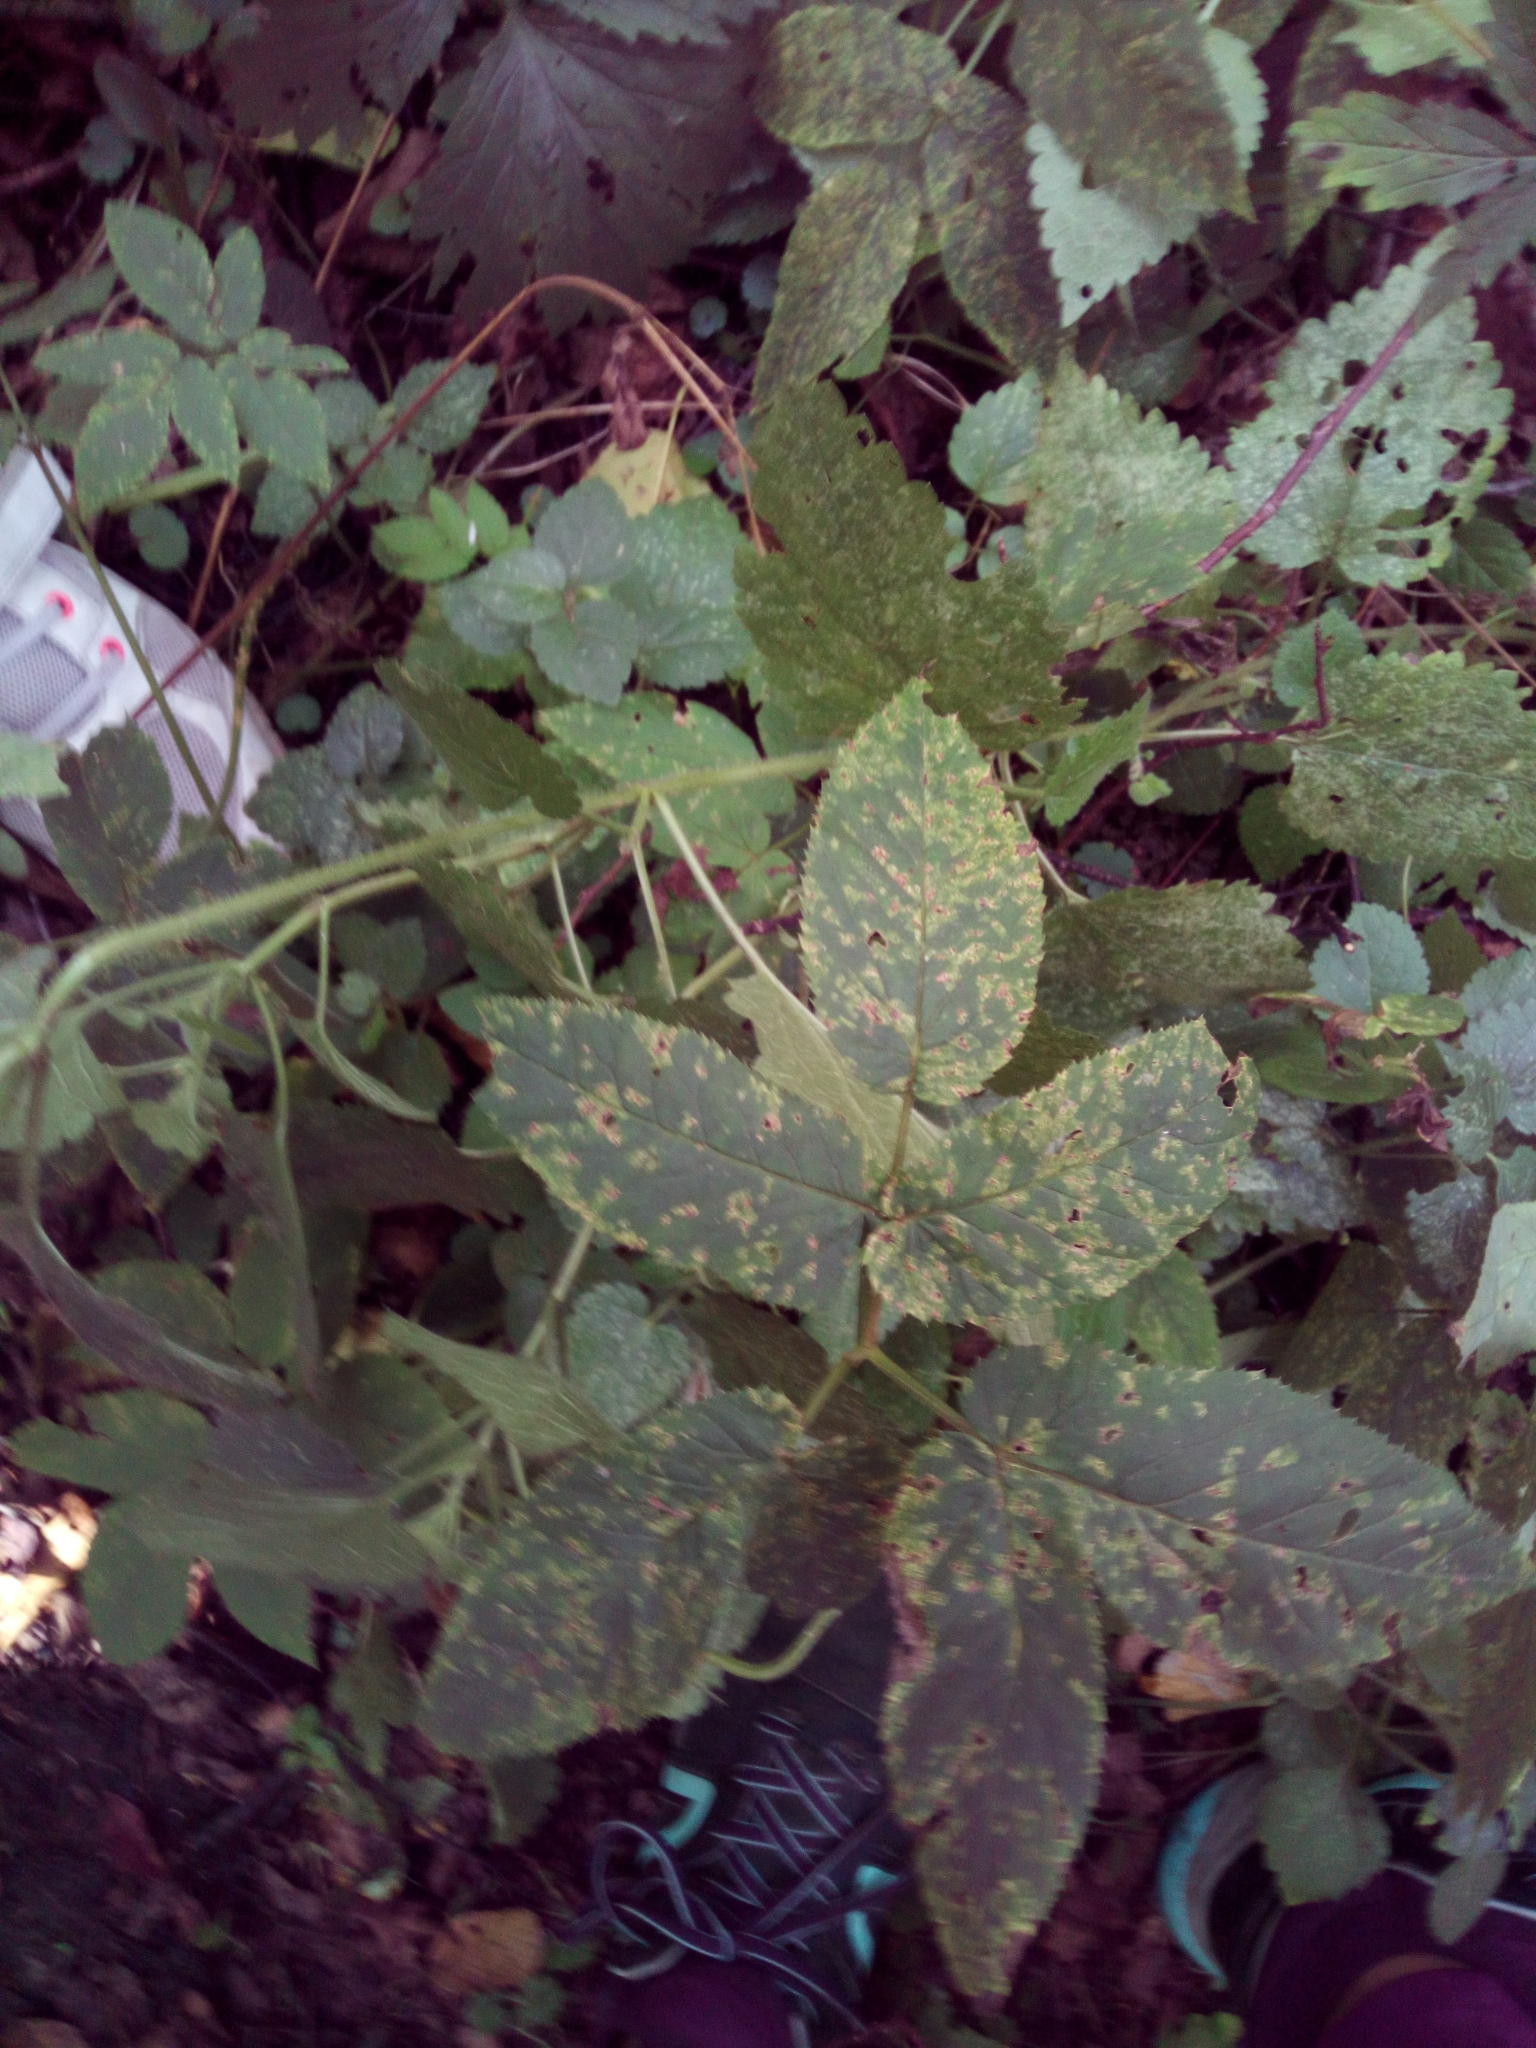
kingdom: Plantae
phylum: Tracheophyta
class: Magnoliopsida
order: Apiales
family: Apiaceae
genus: Aegopodium
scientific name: Aegopodium podagraria
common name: Ground-elder
